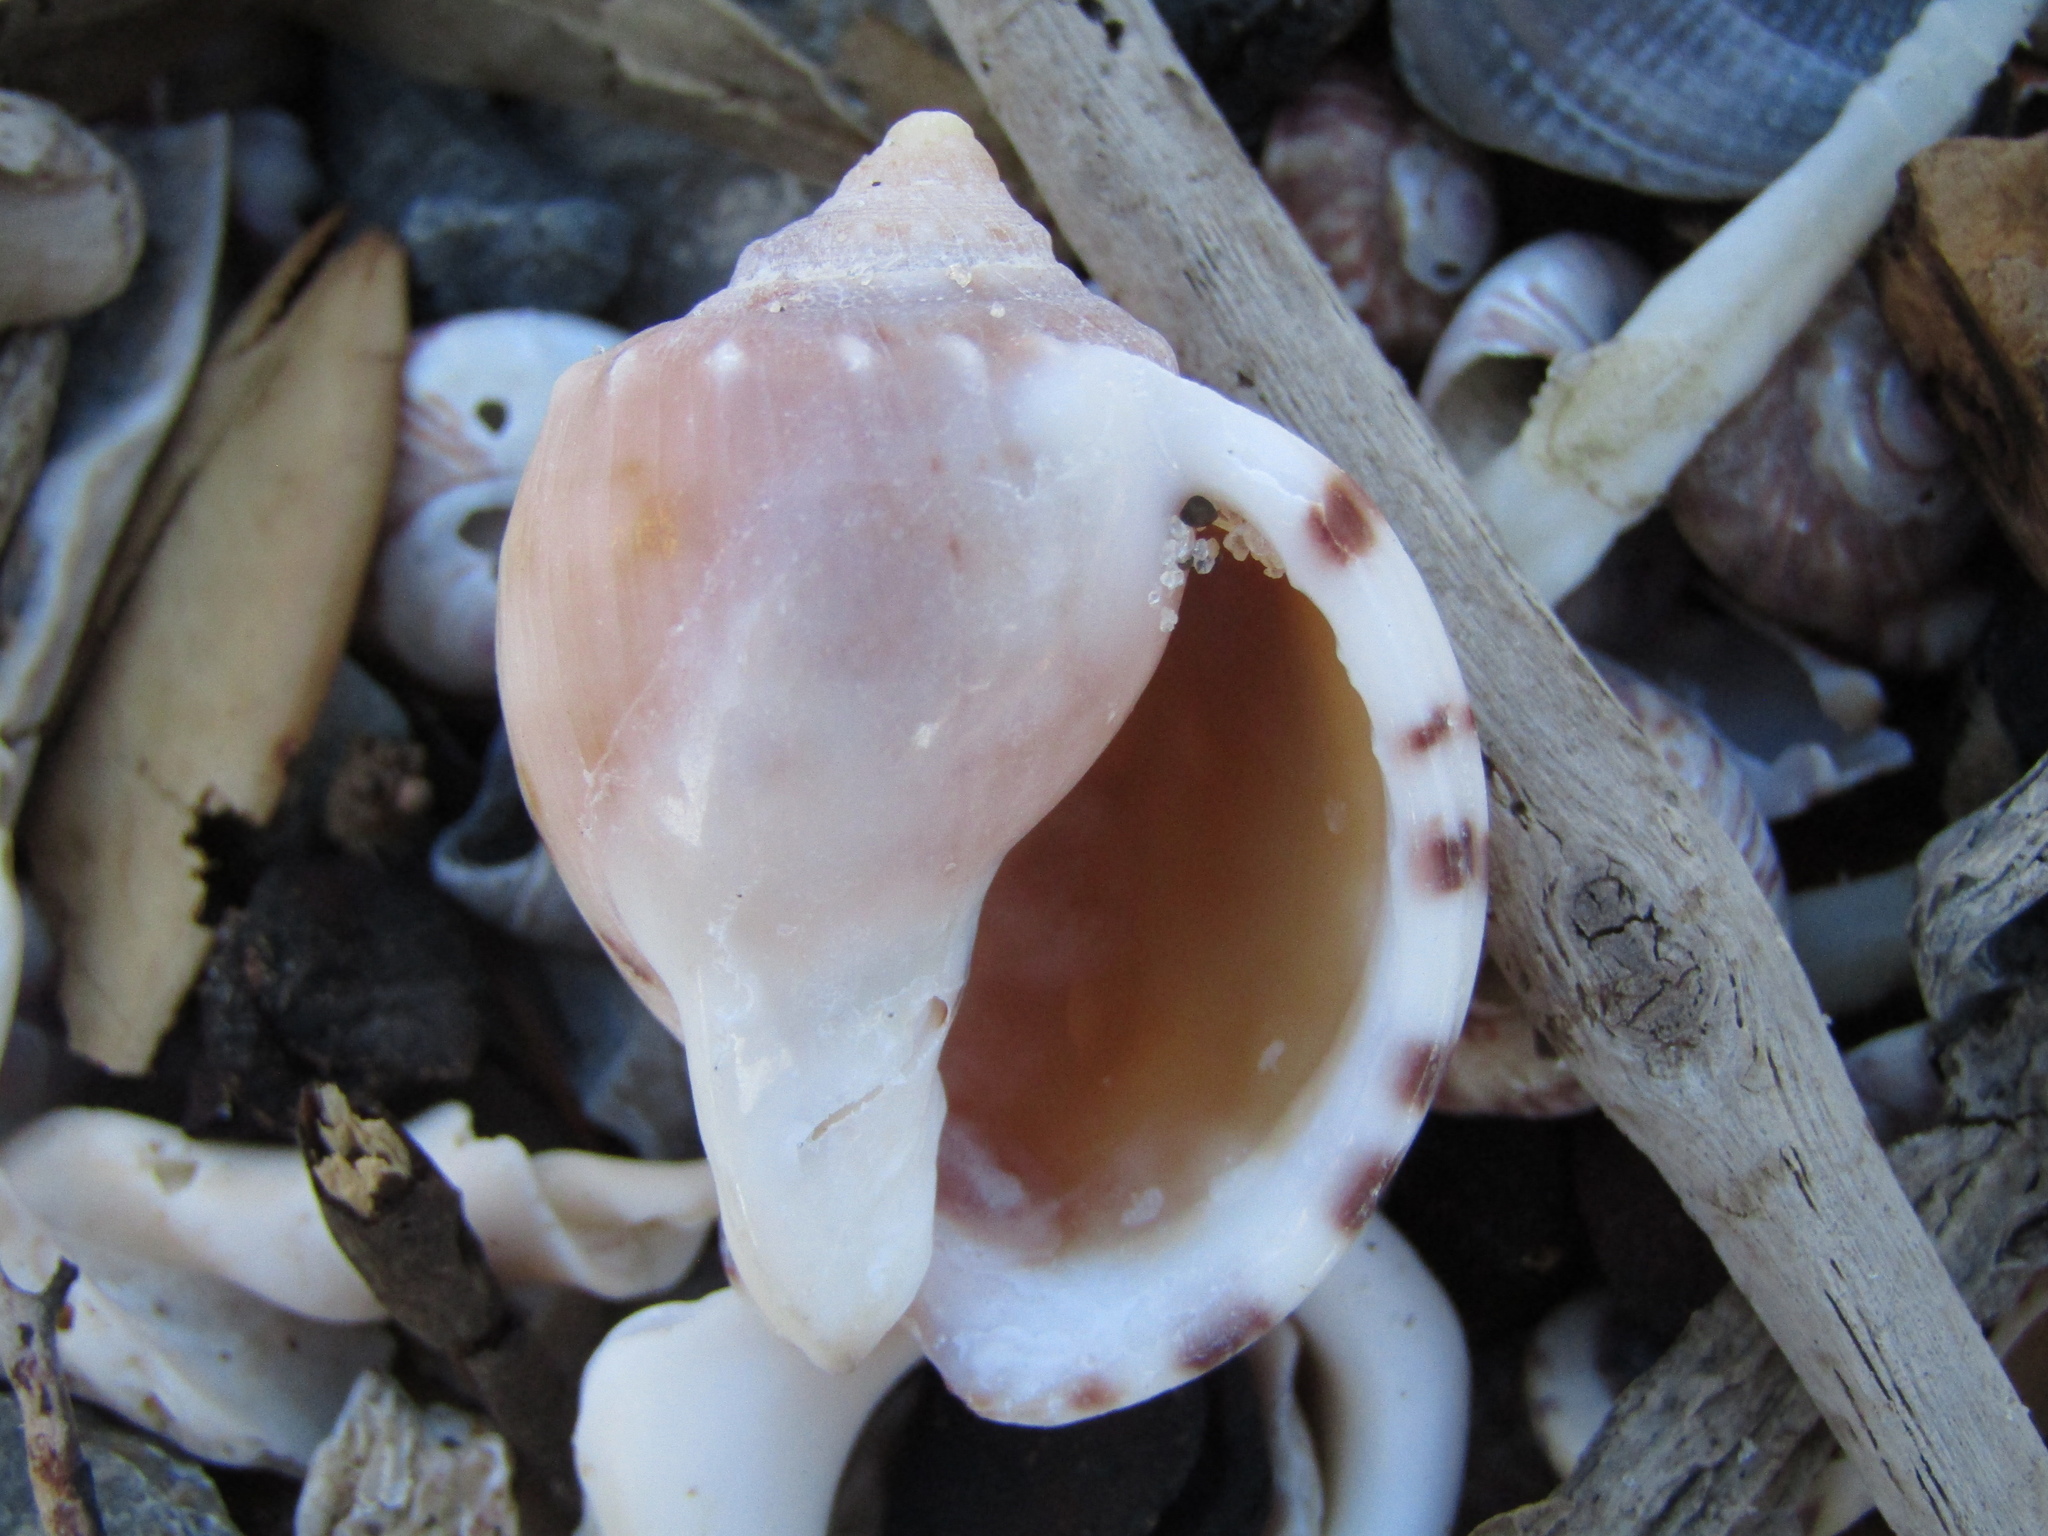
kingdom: Animalia
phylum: Mollusca
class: Gastropoda
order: Littorinimorpha
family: Cassidae
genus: Semicassis
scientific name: Semicassis pyrum
